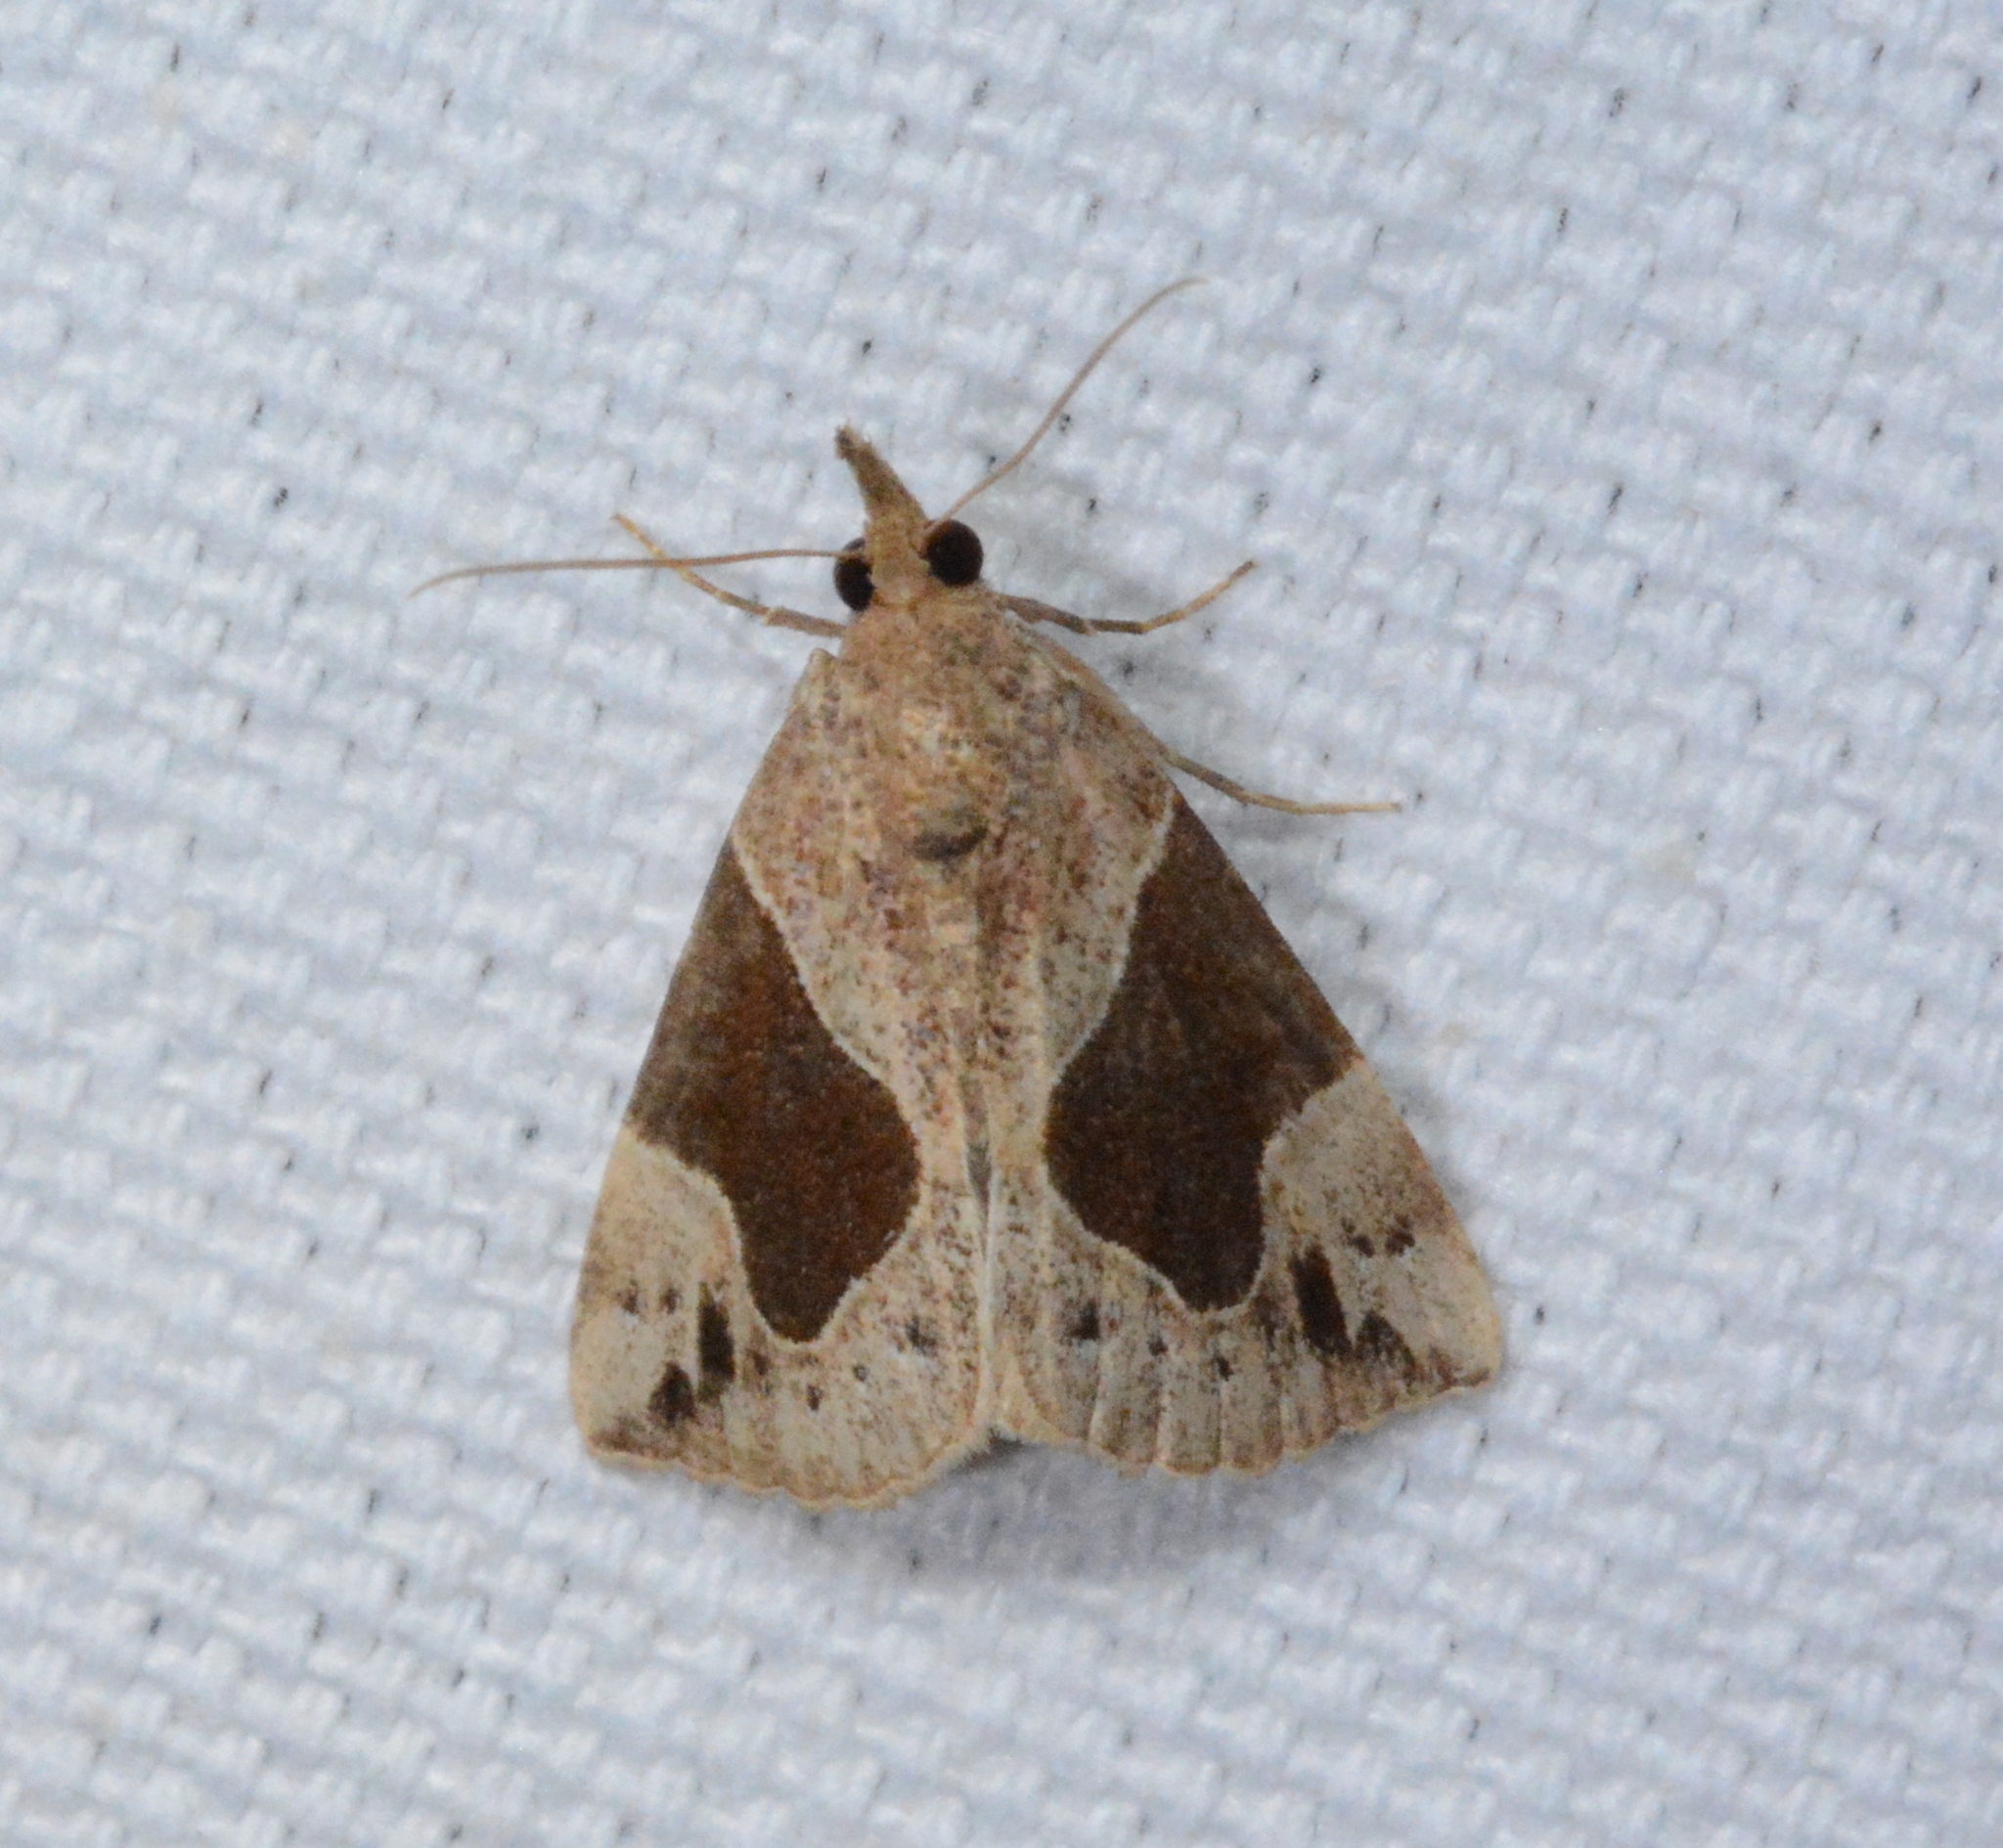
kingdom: Animalia
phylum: Arthropoda
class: Insecta
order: Lepidoptera
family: Erebidae
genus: Hypena
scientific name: Hypena manalis
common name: Flowing-line bomolocha moth
